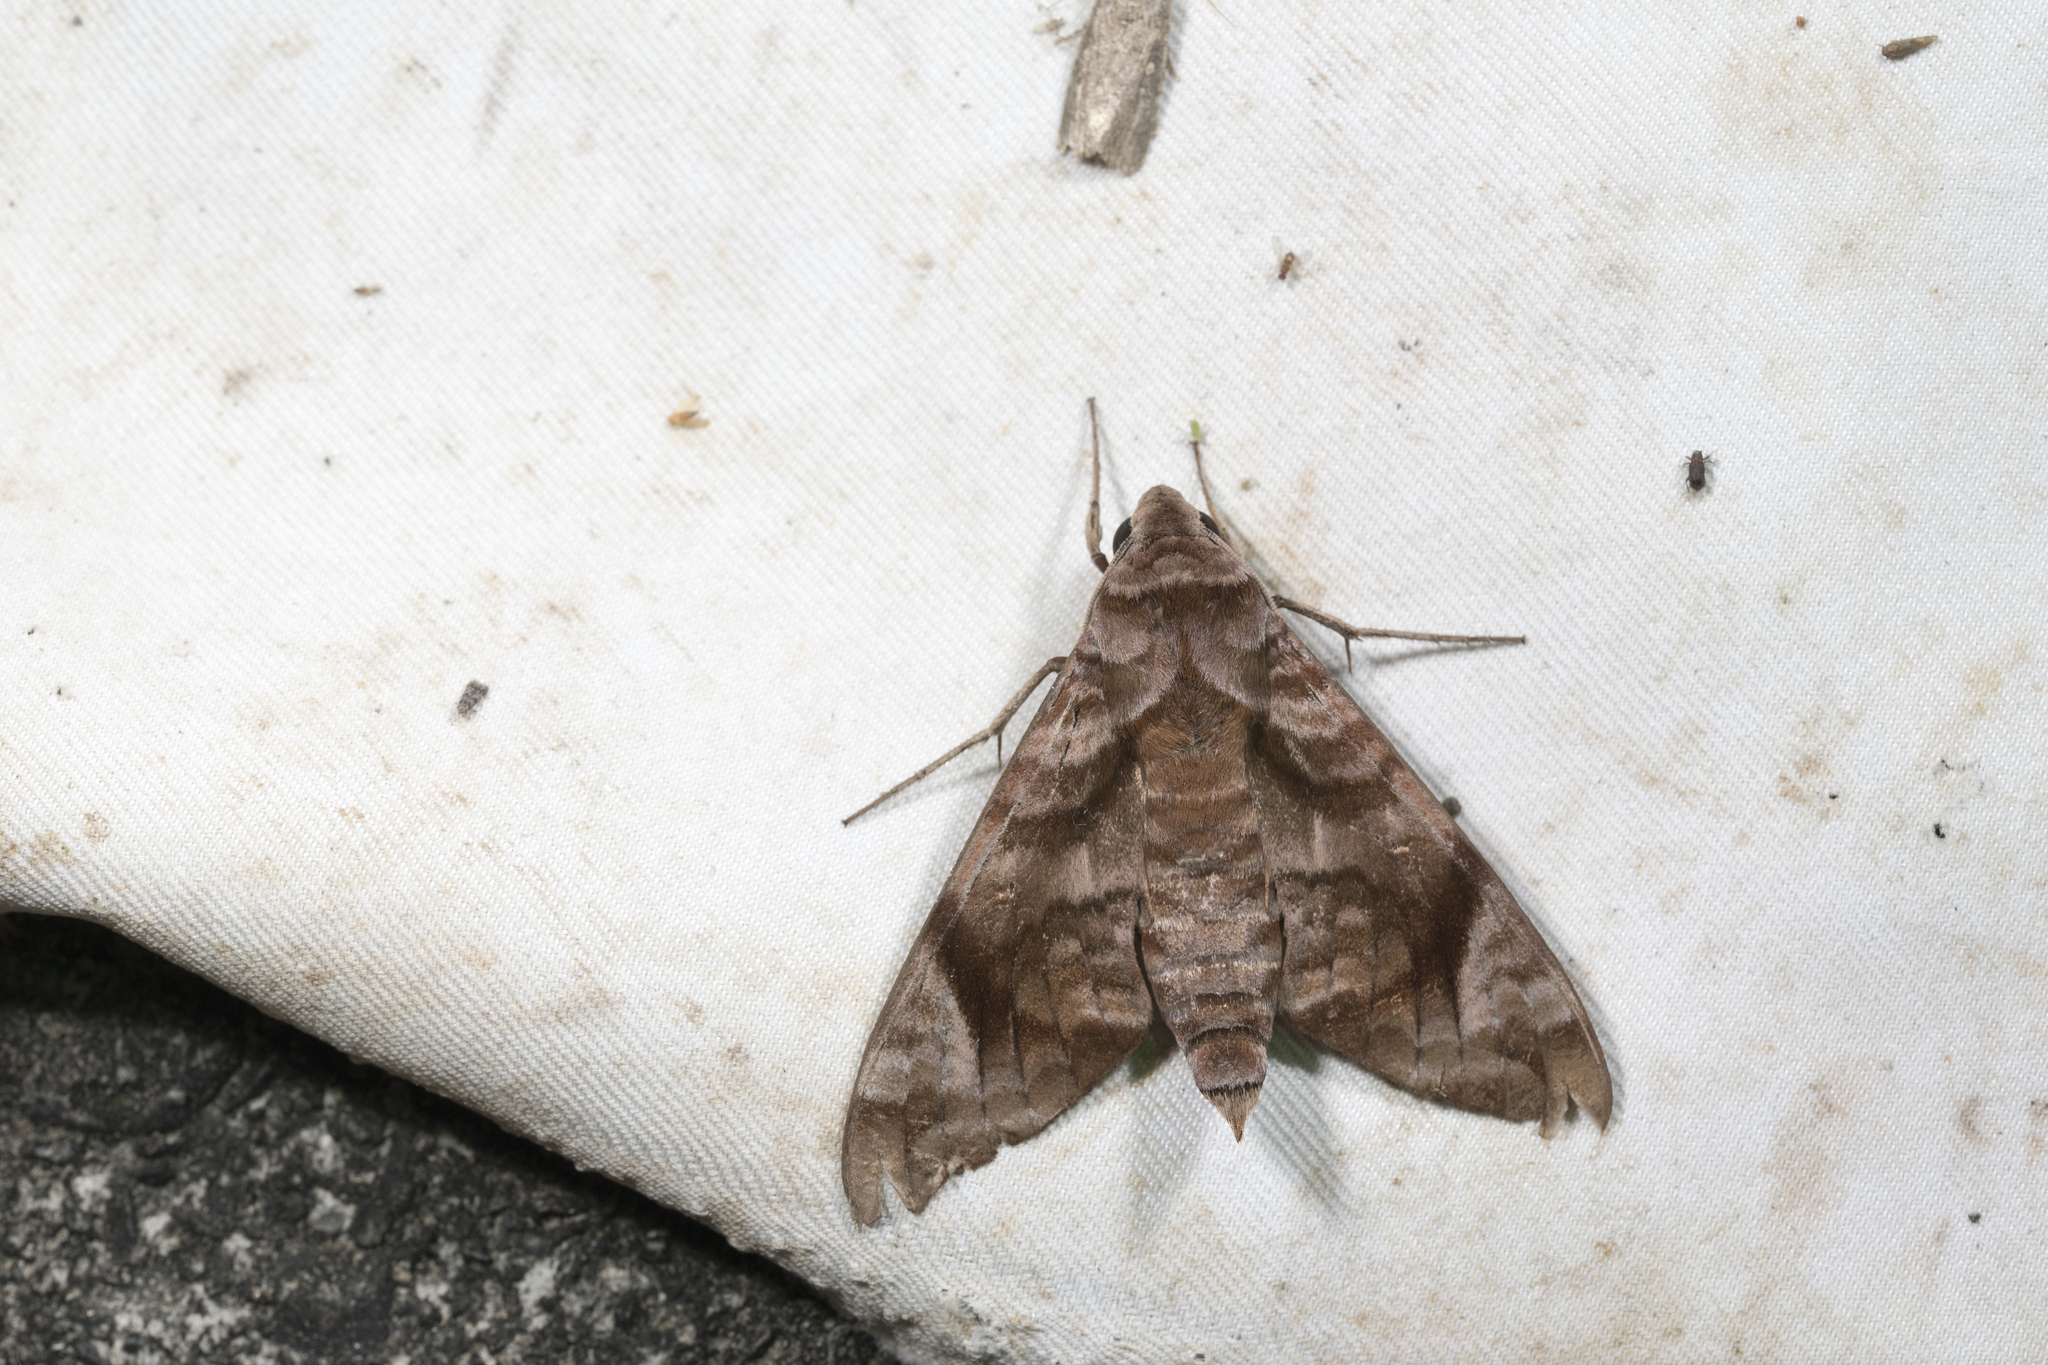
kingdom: Animalia
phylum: Arthropoda
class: Insecta
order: Lepidoptera
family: Sphingidae
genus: Acosmeryx
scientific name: Acosmeryx castanea
